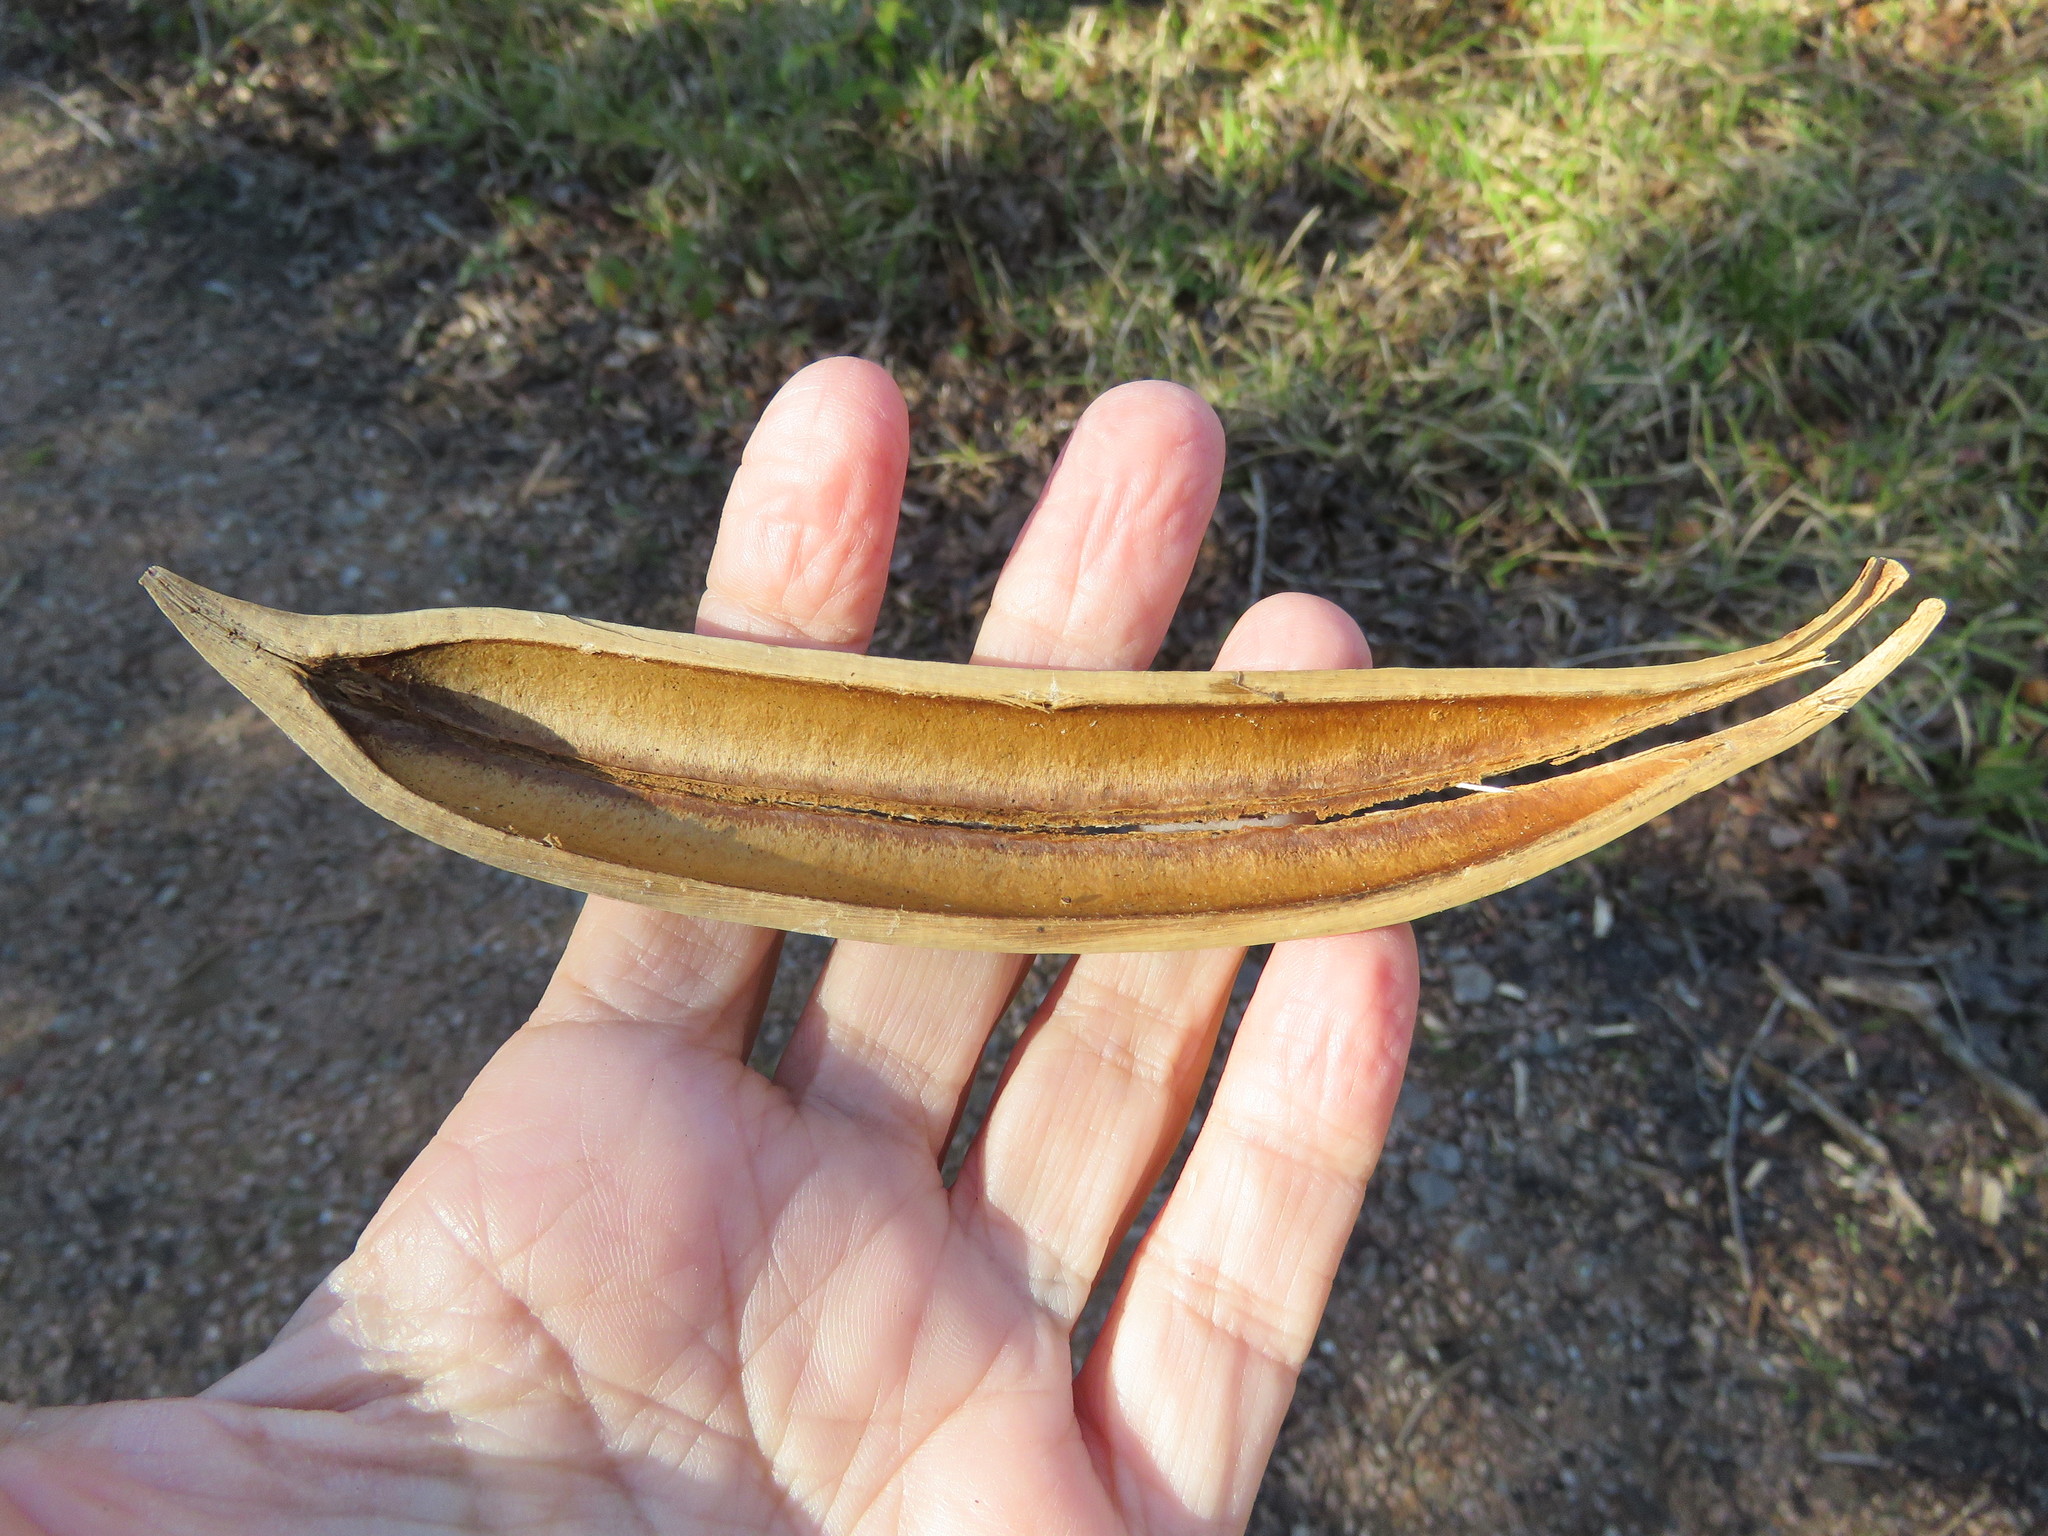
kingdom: Plantae
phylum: Tracheophyta
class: Magnoliopsida
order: Lamiales
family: Bignoniaceae
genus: Campsis
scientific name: Campsis radicans
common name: Trumpet-creeper
